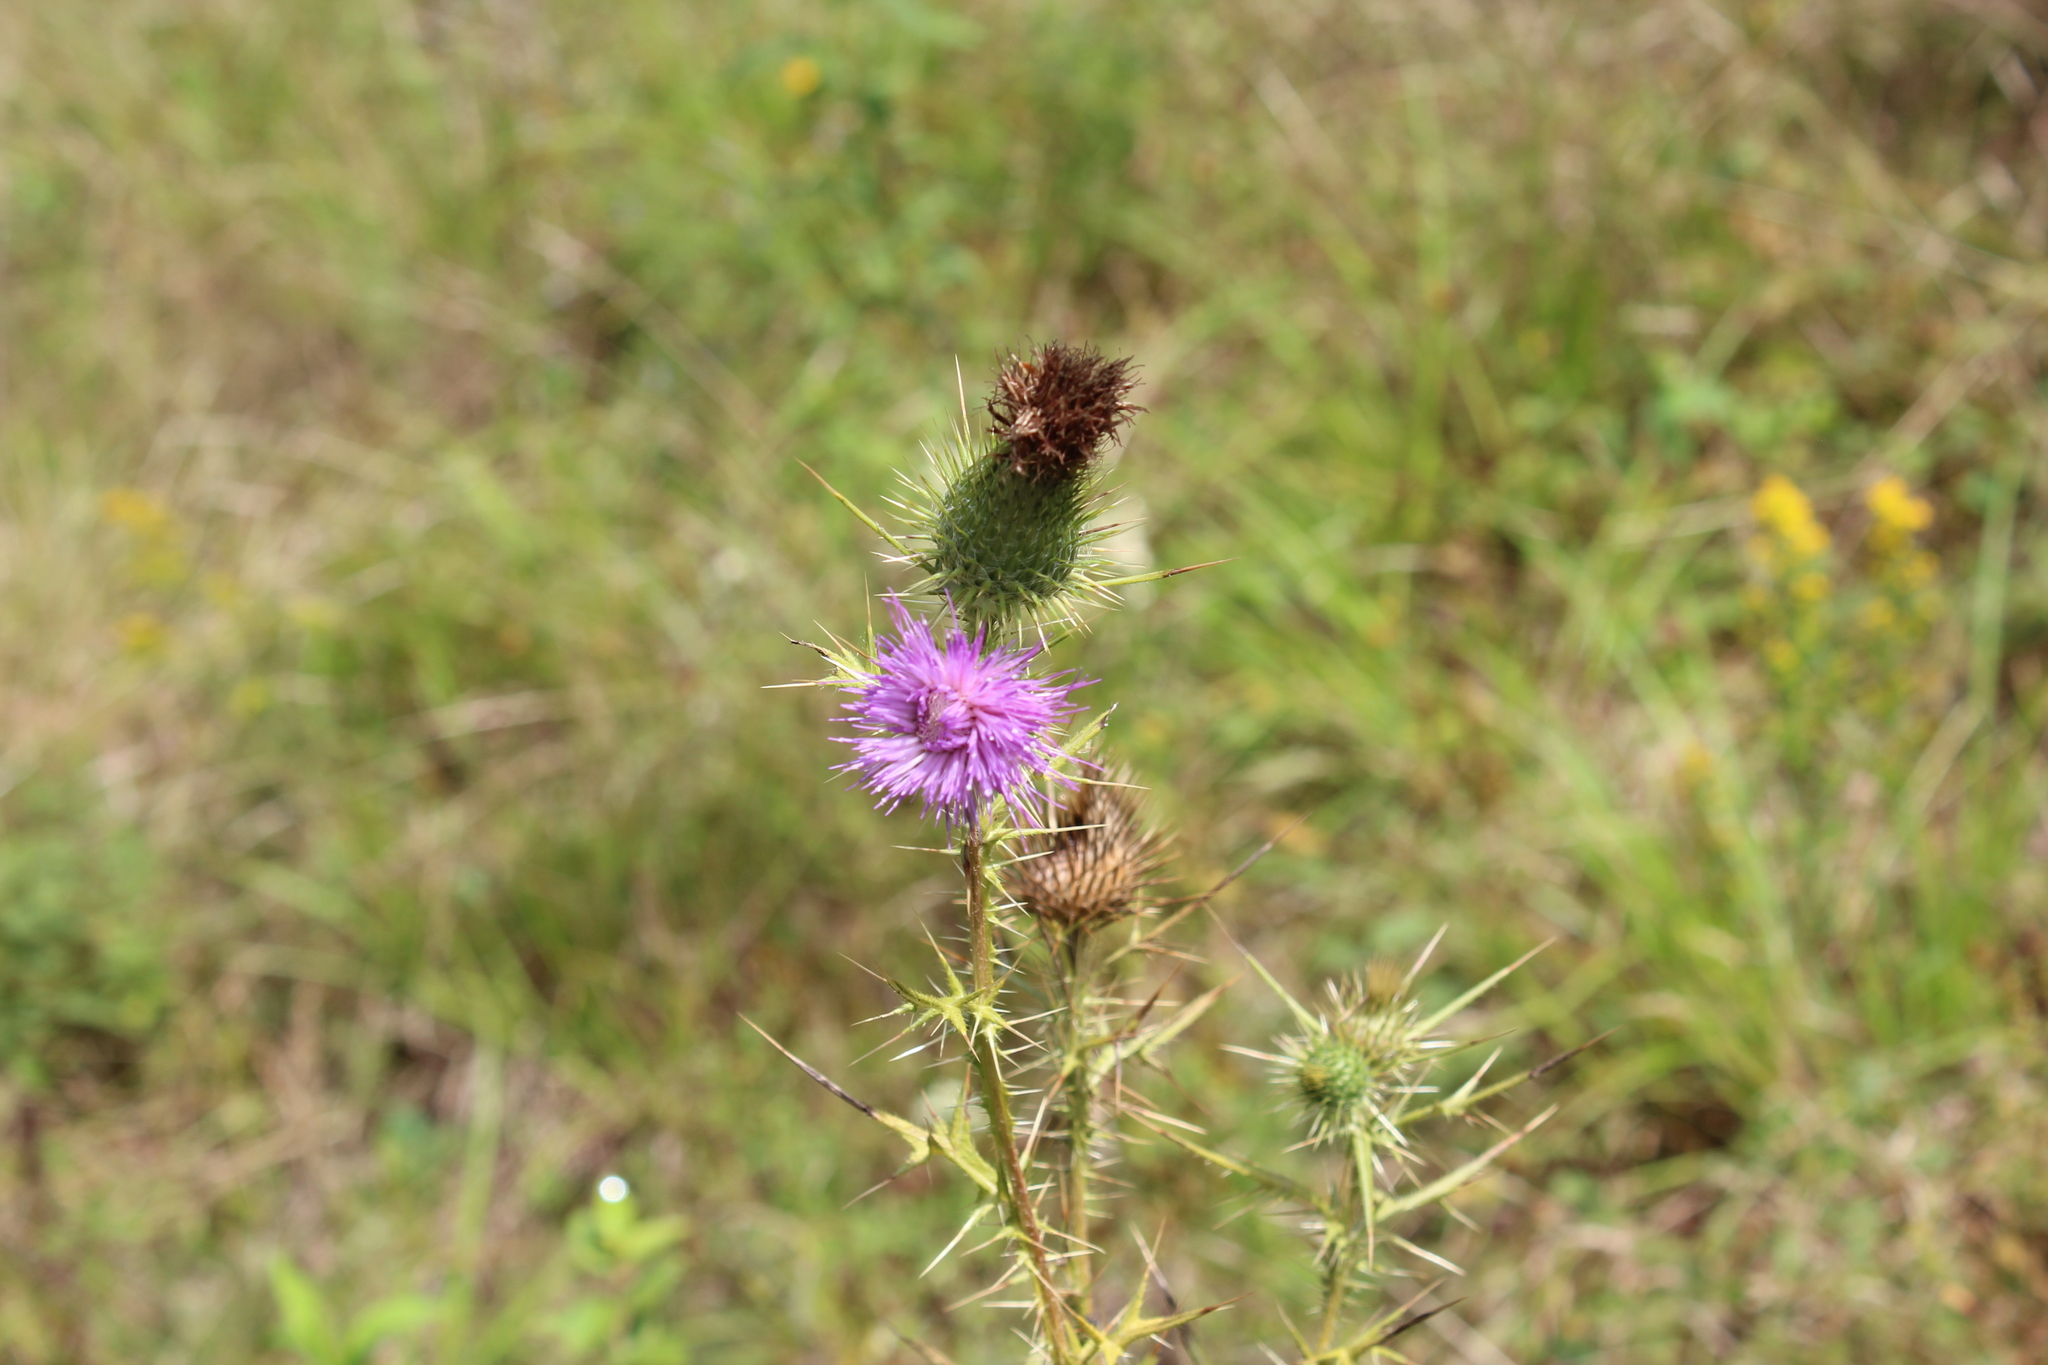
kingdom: Plantae
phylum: Tracheophyta
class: Magnoliopsida
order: Asterales
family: Asteraceae
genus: Cirsium
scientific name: Cirsium vulgare
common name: Bull thistle
